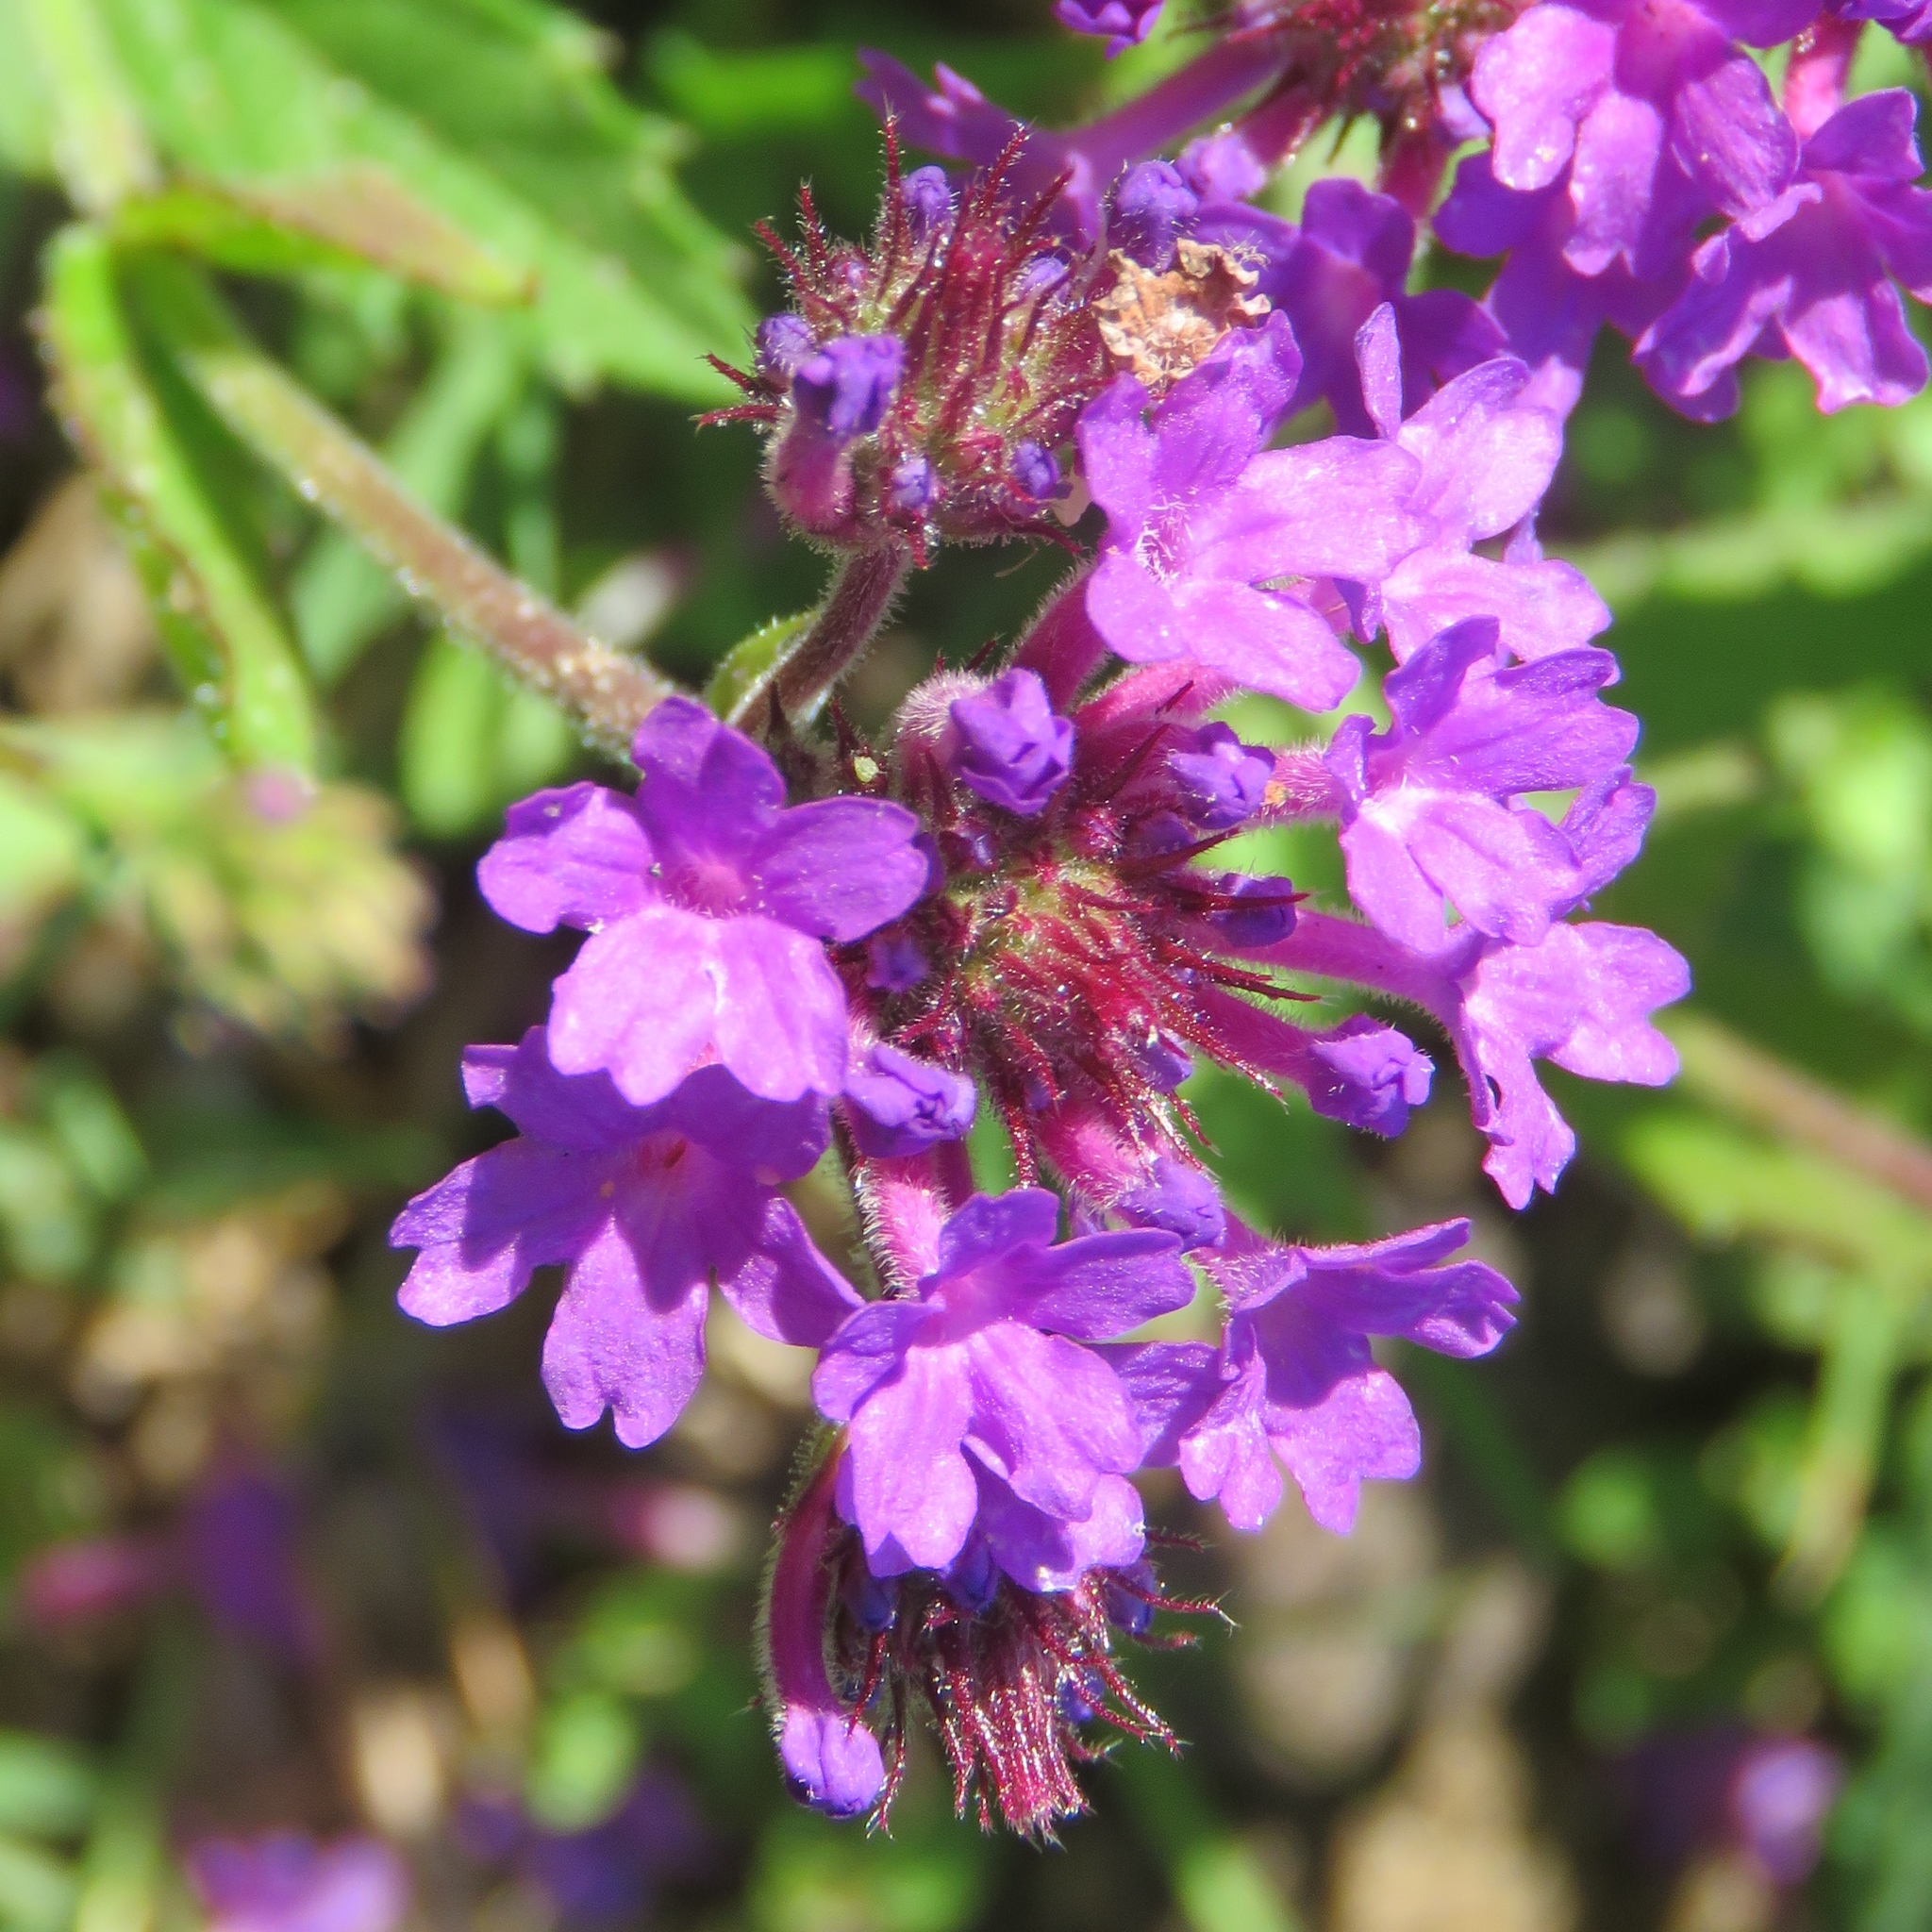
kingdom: Plantae
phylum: Tracheophyta
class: Magnoliopsida
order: Lamiales
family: Verbenaceae
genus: Verbena
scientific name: Verbena rigida
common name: Slender vervain
